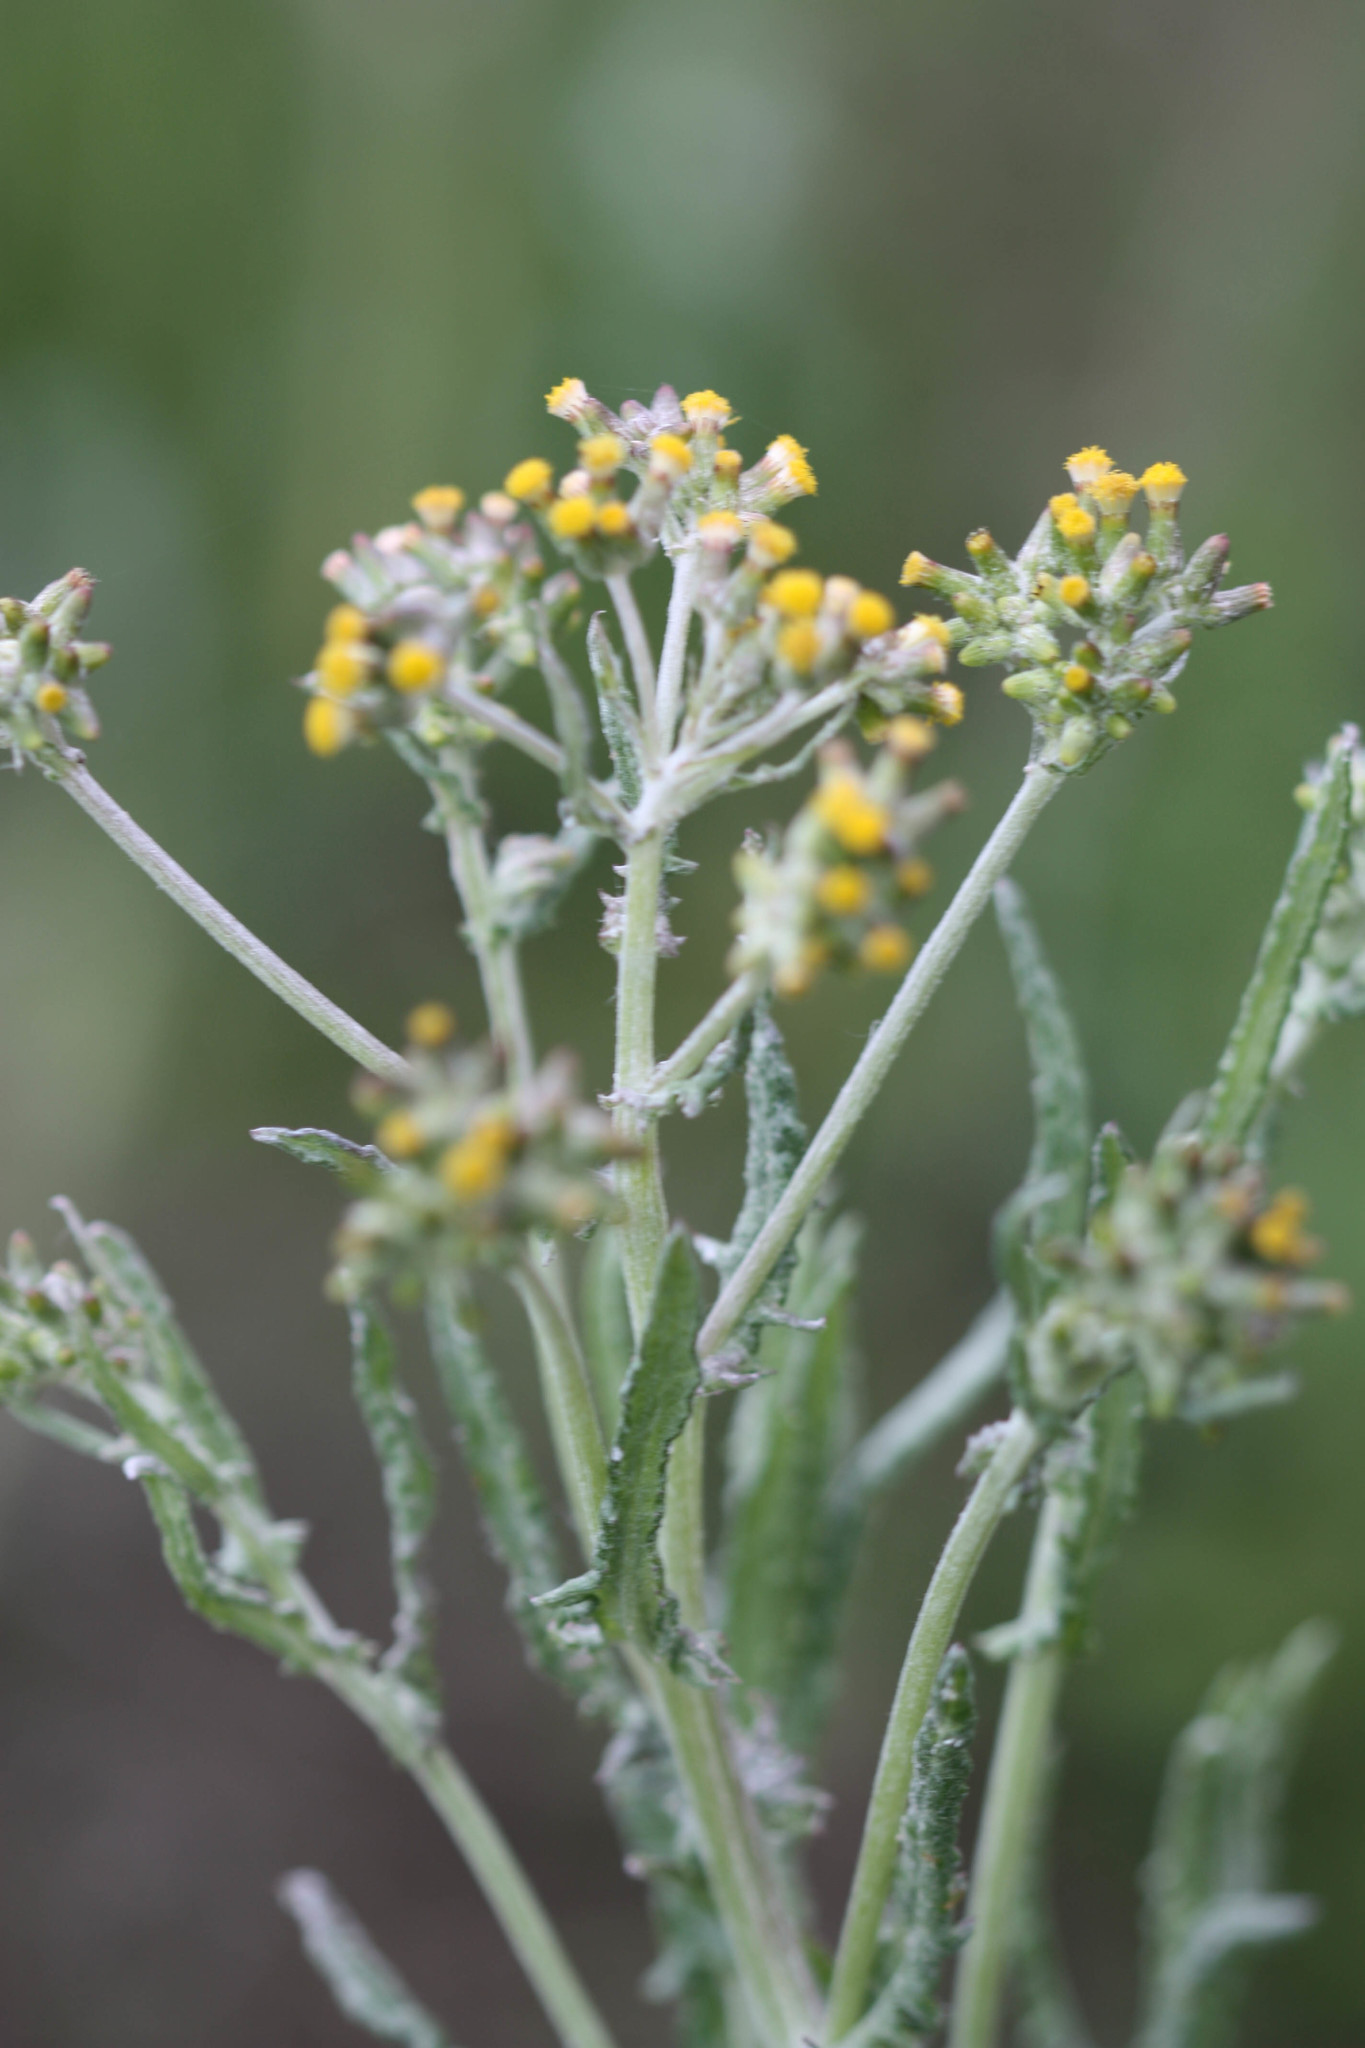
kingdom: Plantae
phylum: Tracheophyta
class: Magnoliopsida
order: Asterales
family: Asteraceae
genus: Senecio
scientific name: Senecio glomeratus
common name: Cutleaf burnweed
